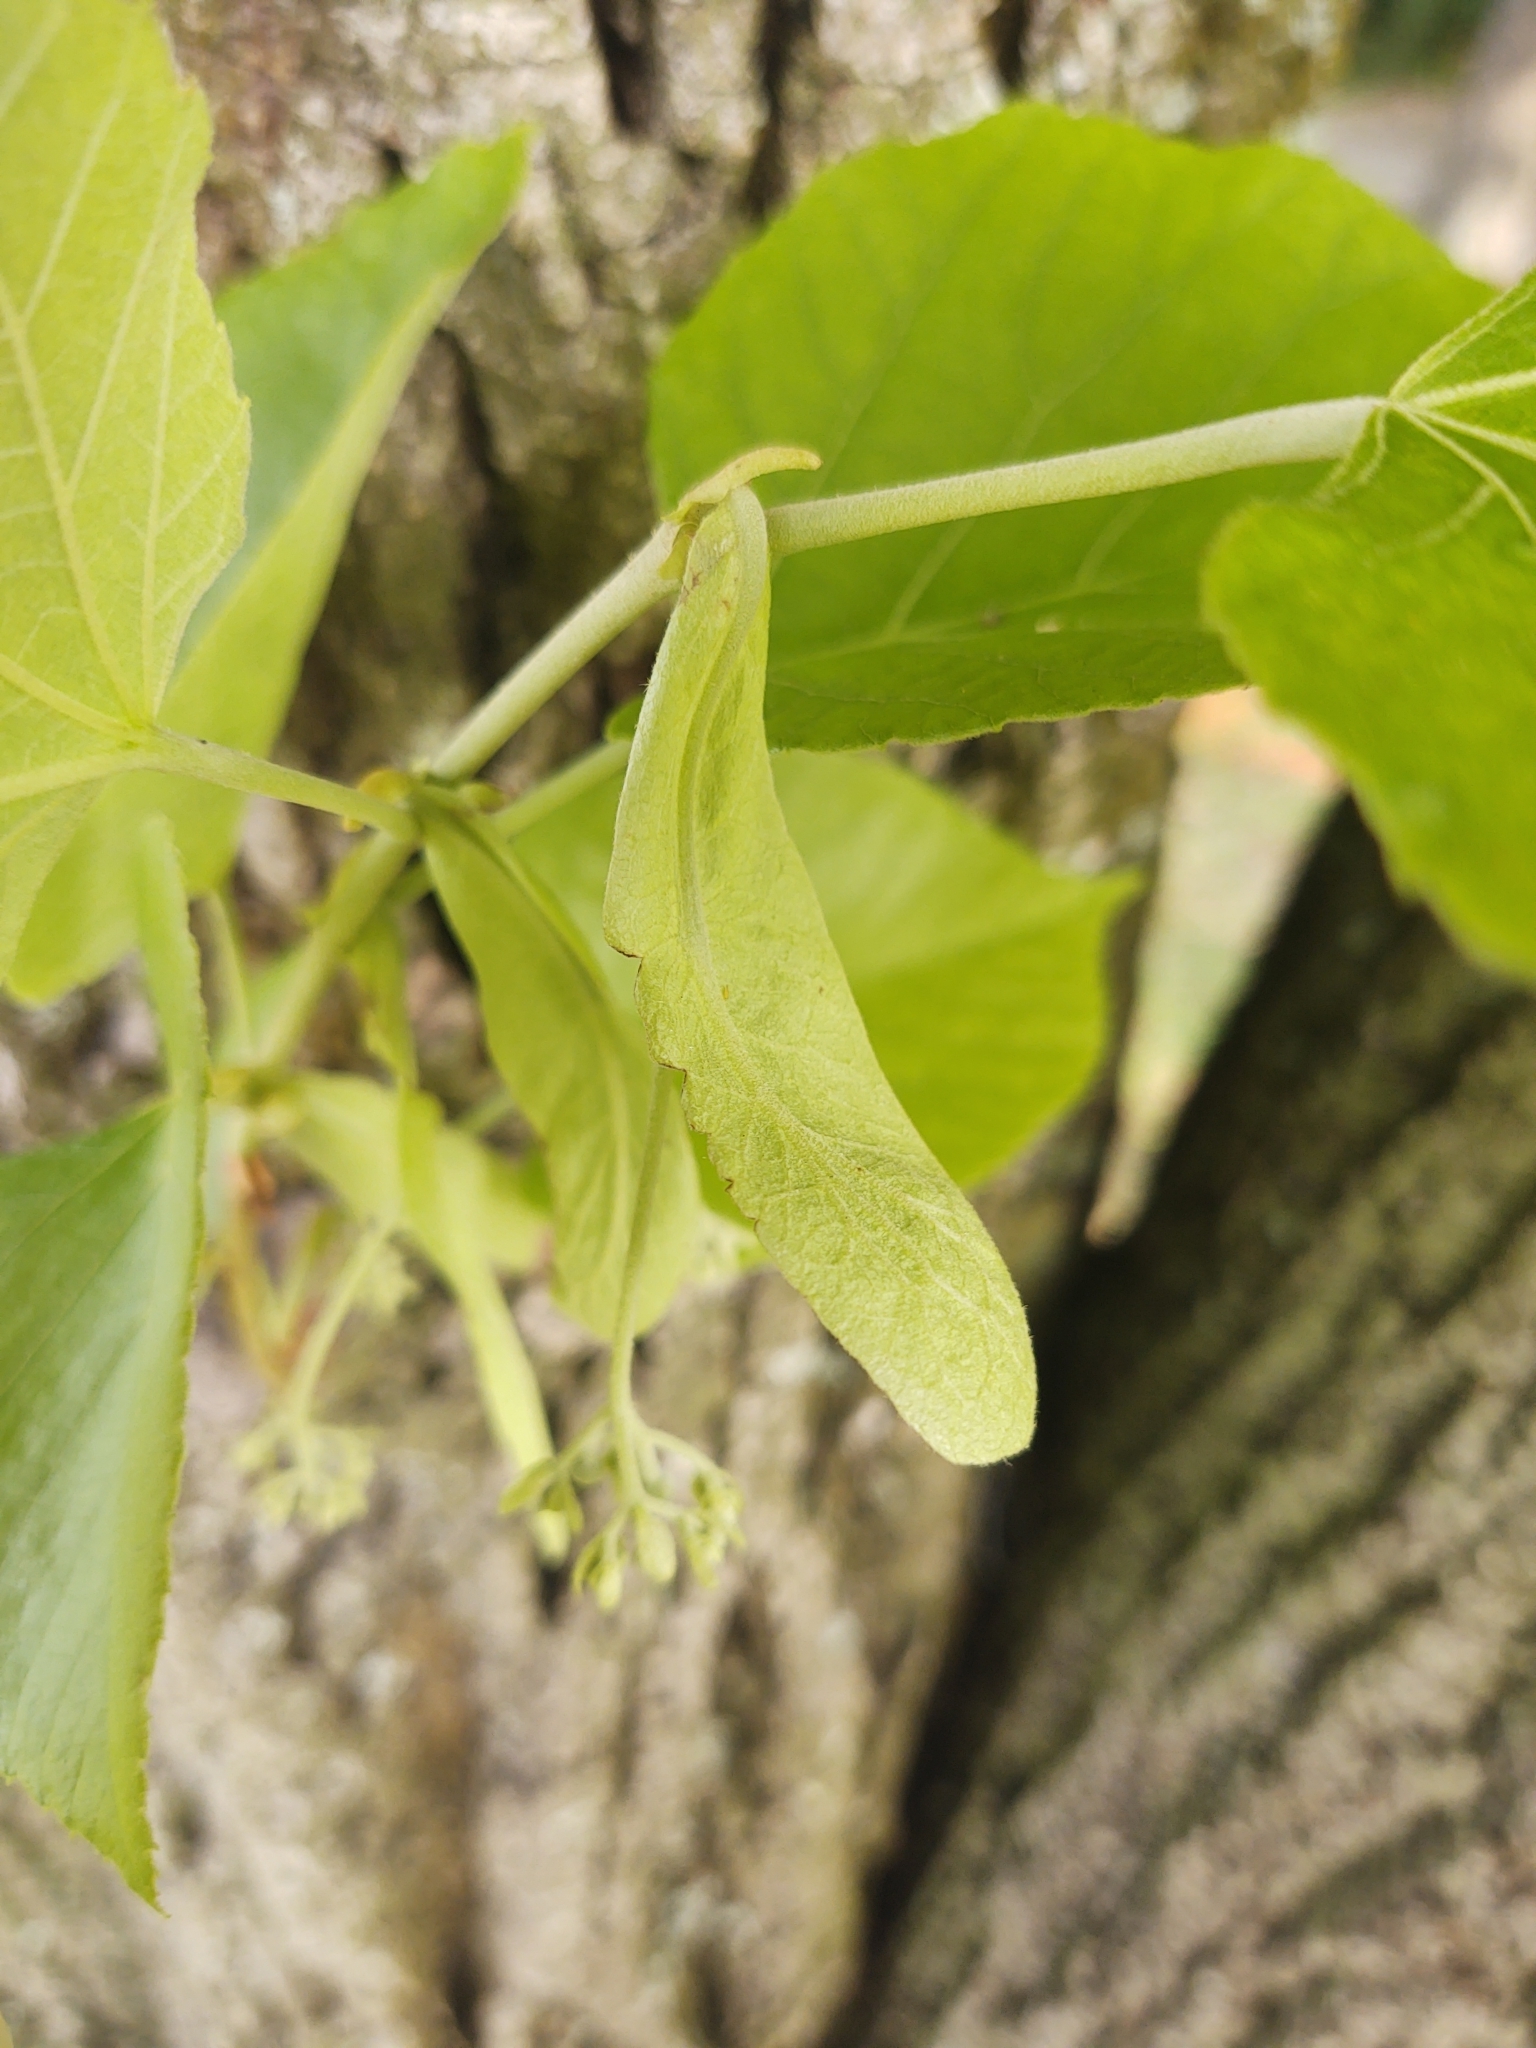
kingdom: Plantae
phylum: Tracheophyta
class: Magnoliopsida
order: Malvales
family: Malvaceae
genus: Tilia
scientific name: Tilia americana
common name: Basswood
